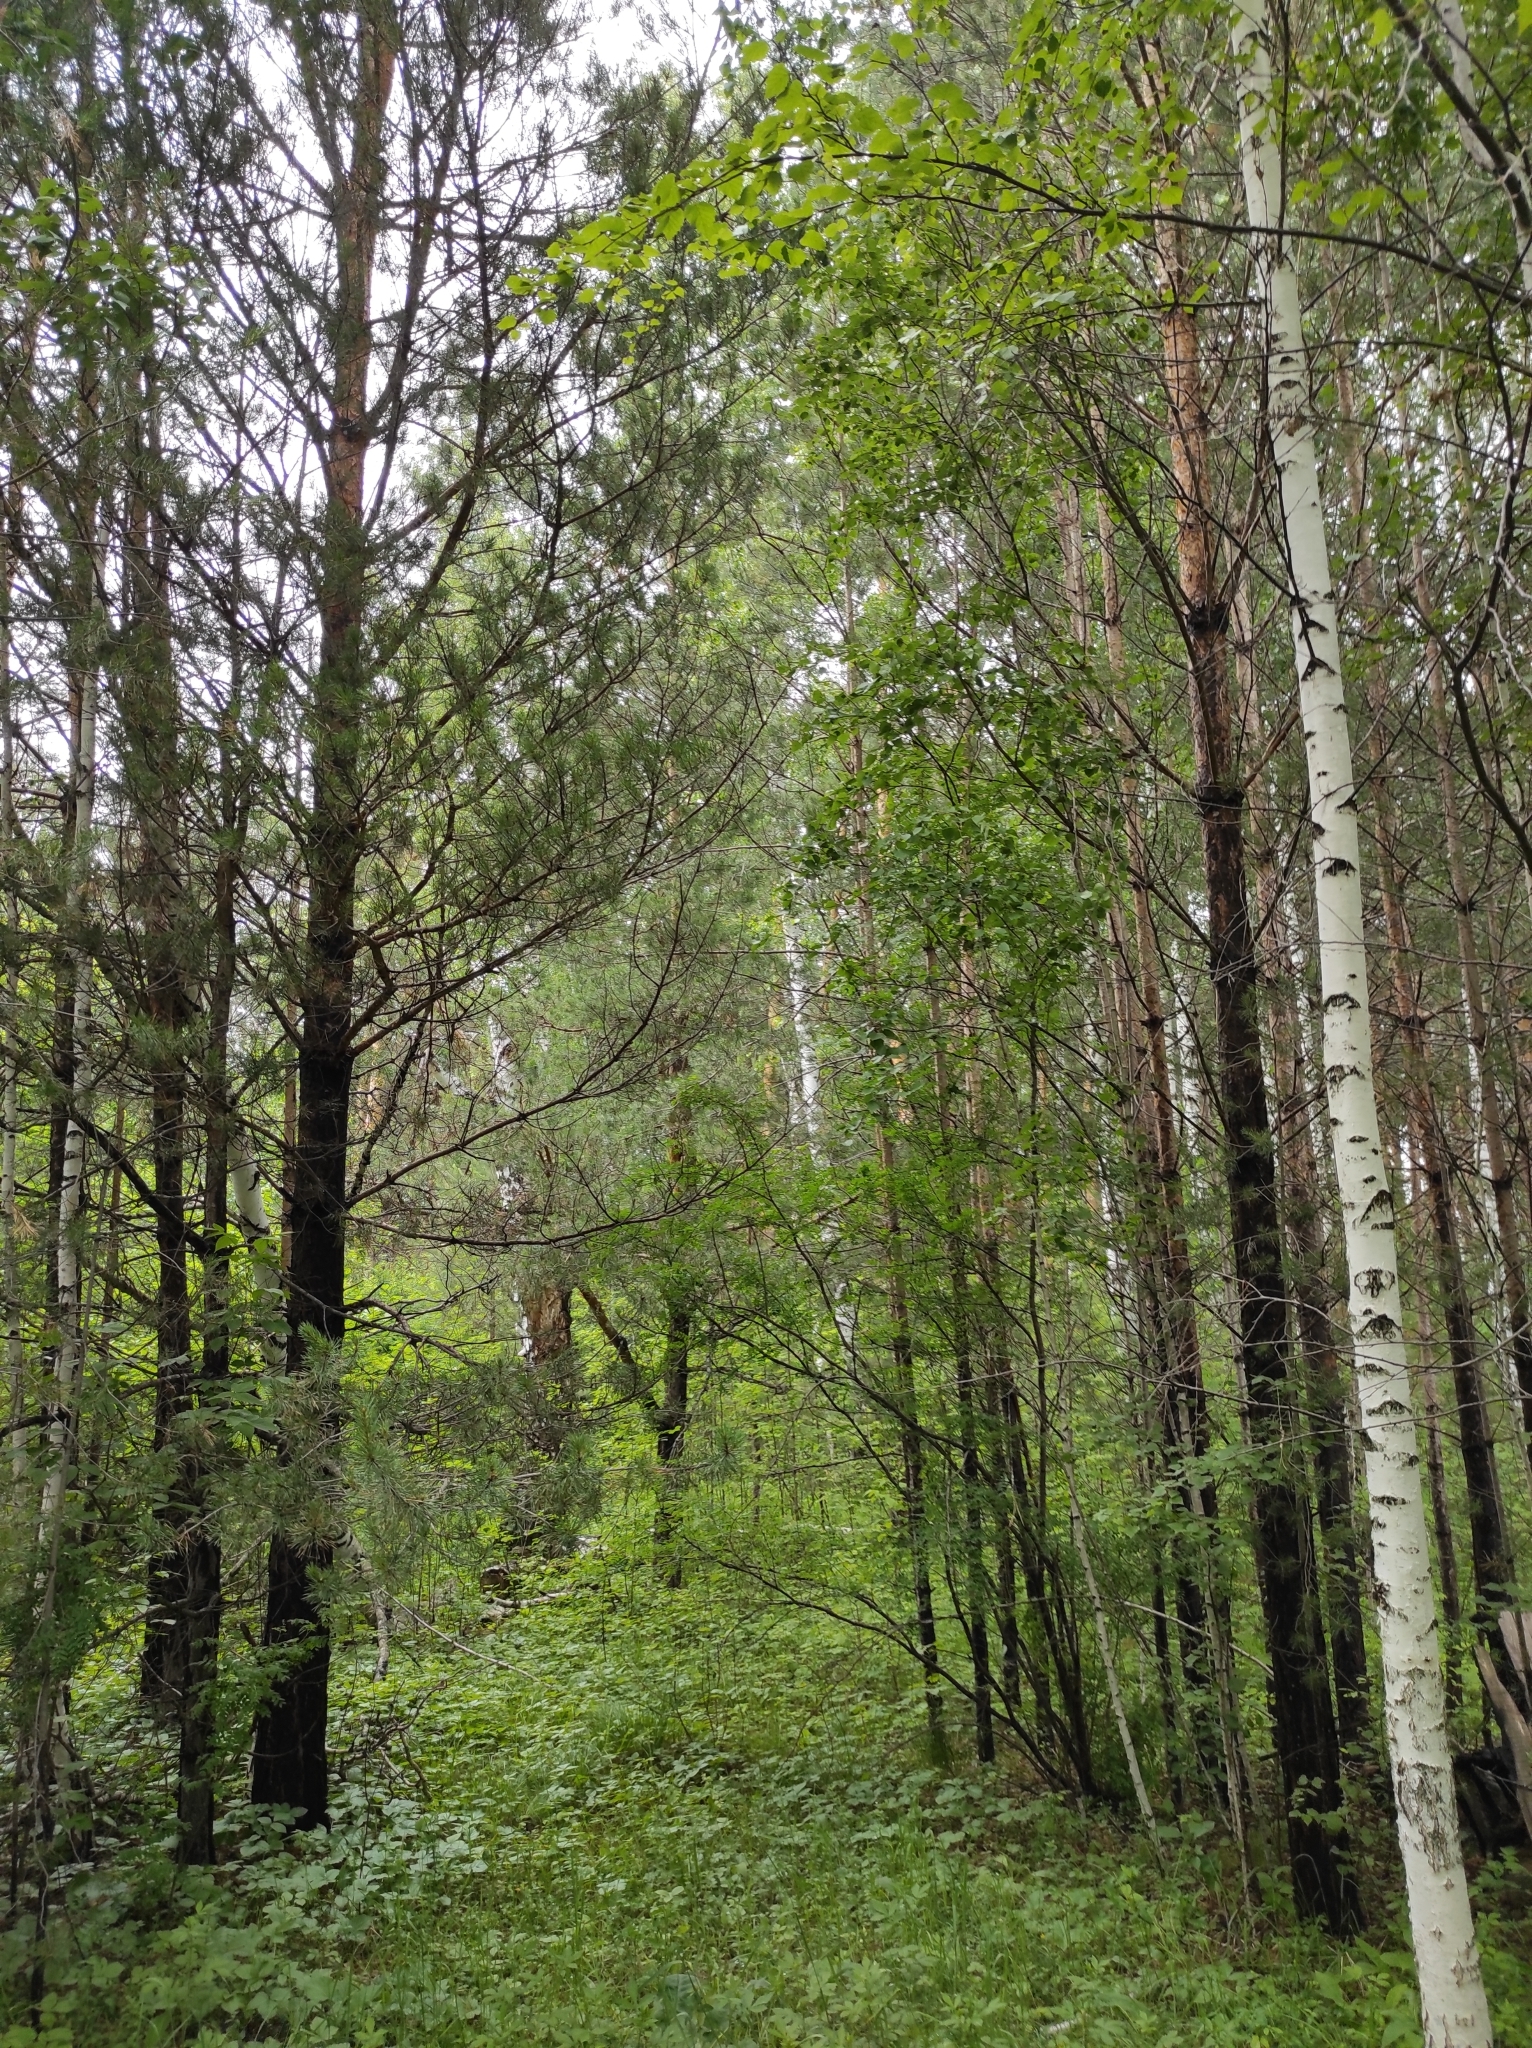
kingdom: Plantae
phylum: Tracheophyta
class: Pinopsida
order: Pinales
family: Pinaceae
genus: Pinus
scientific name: Pinus sylvestris
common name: Scots pine
